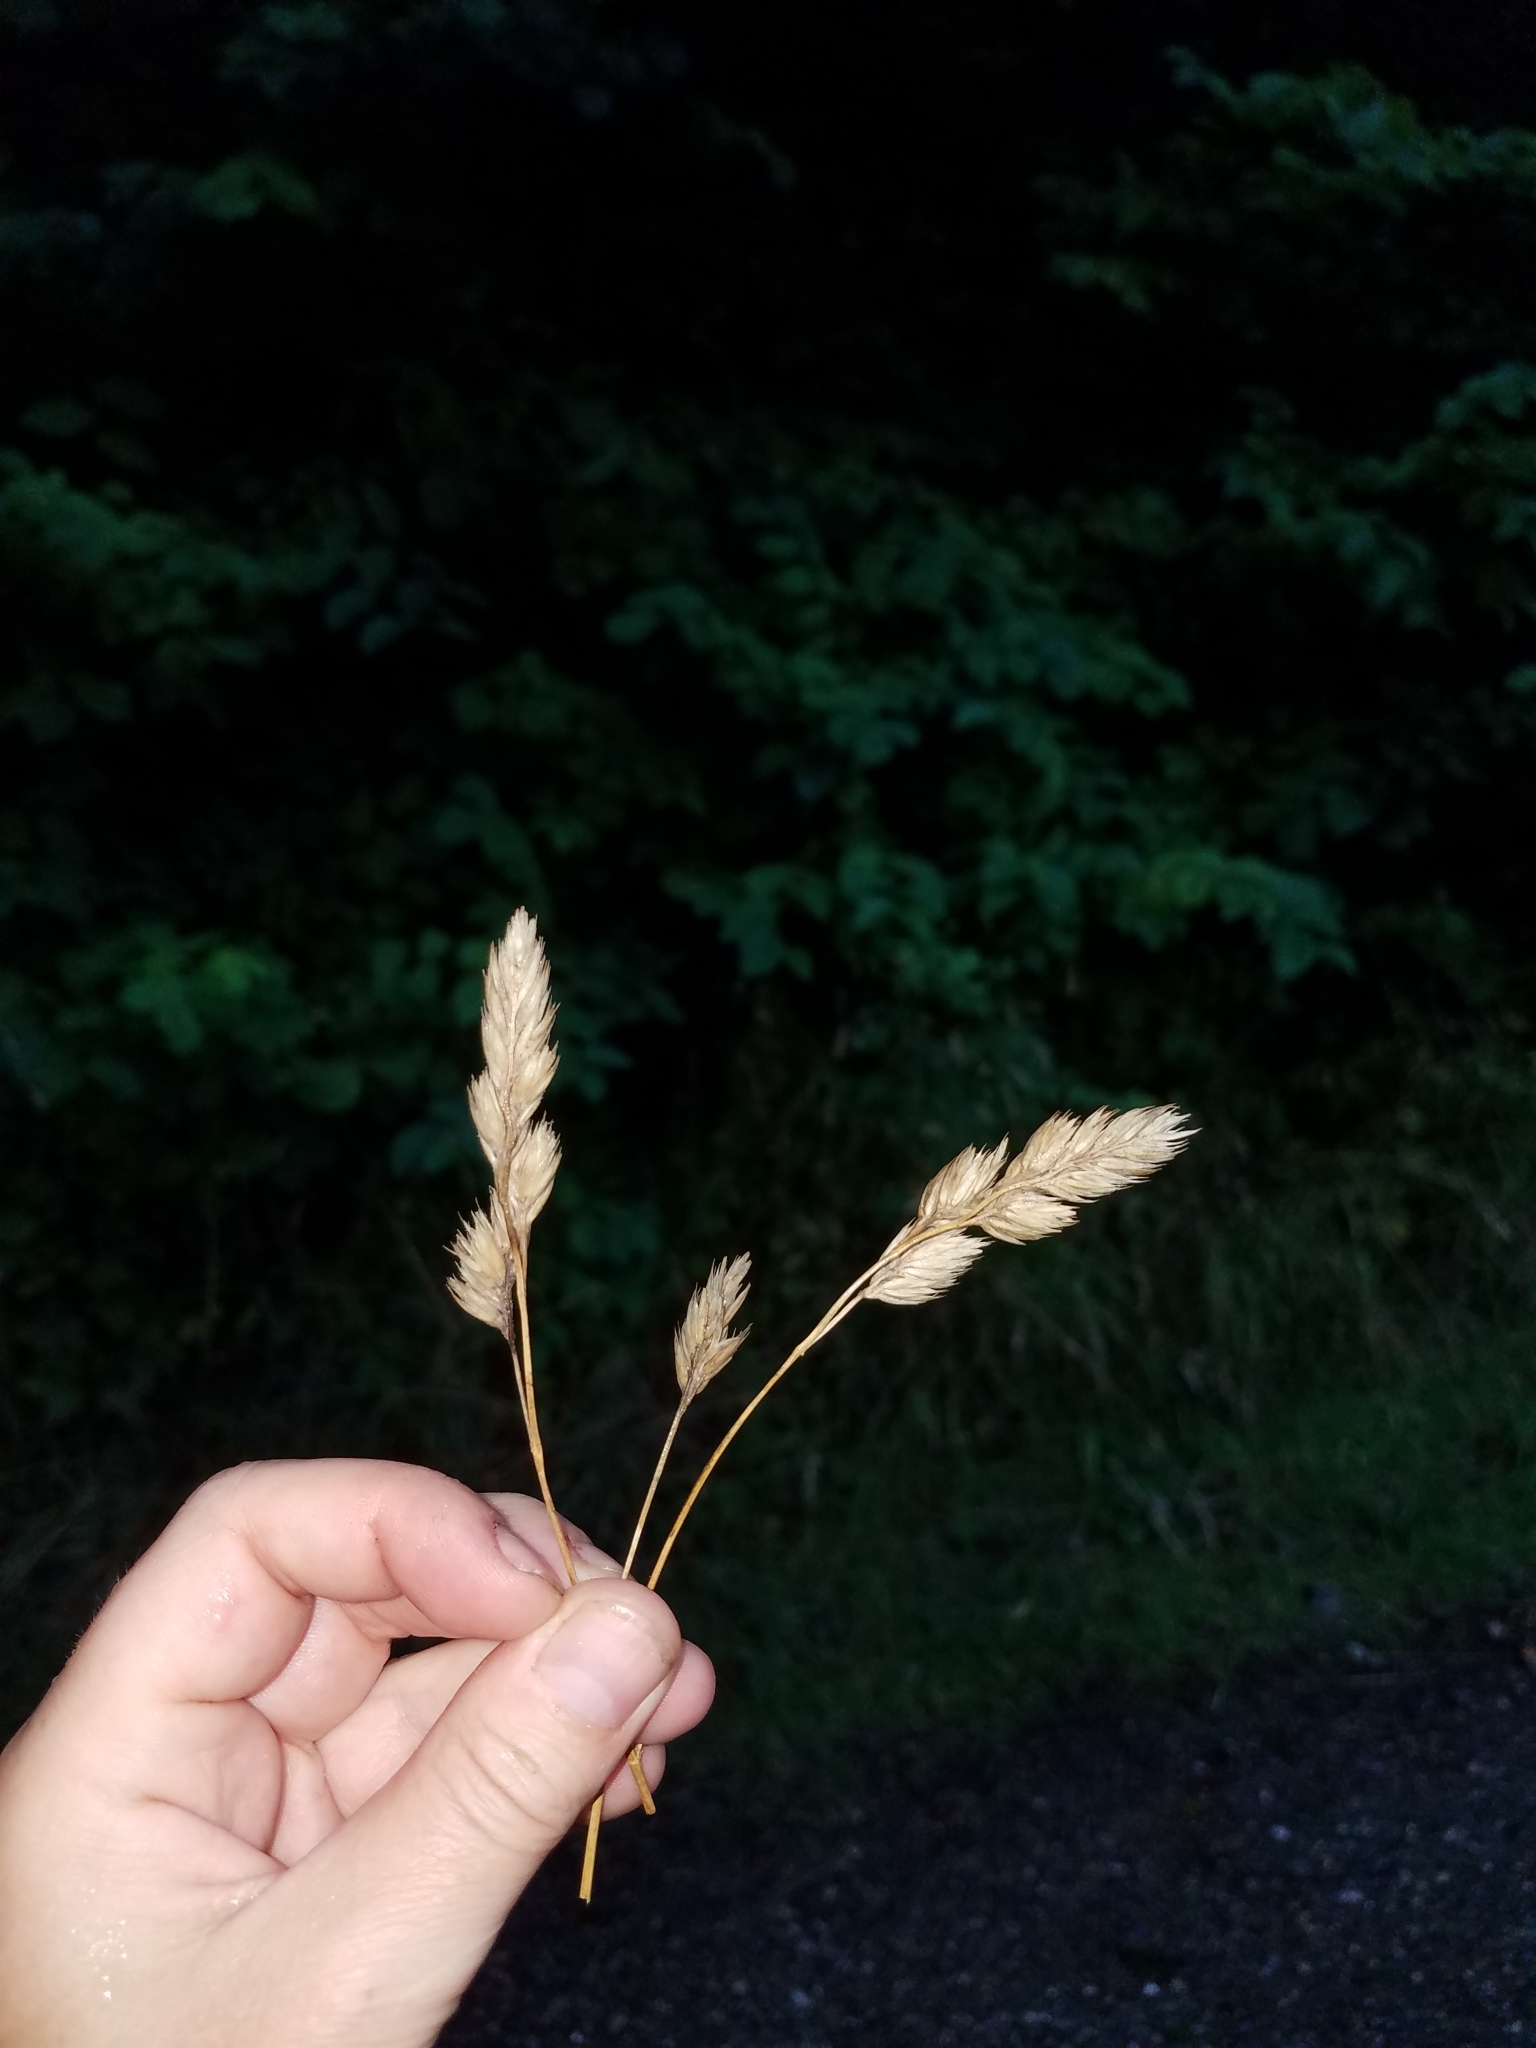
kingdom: Plantae
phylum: Tracheophyta
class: Liliopsida
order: Poales
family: Poaceae
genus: Dactylis
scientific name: Dactylis glomerata
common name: Orchardgrass
